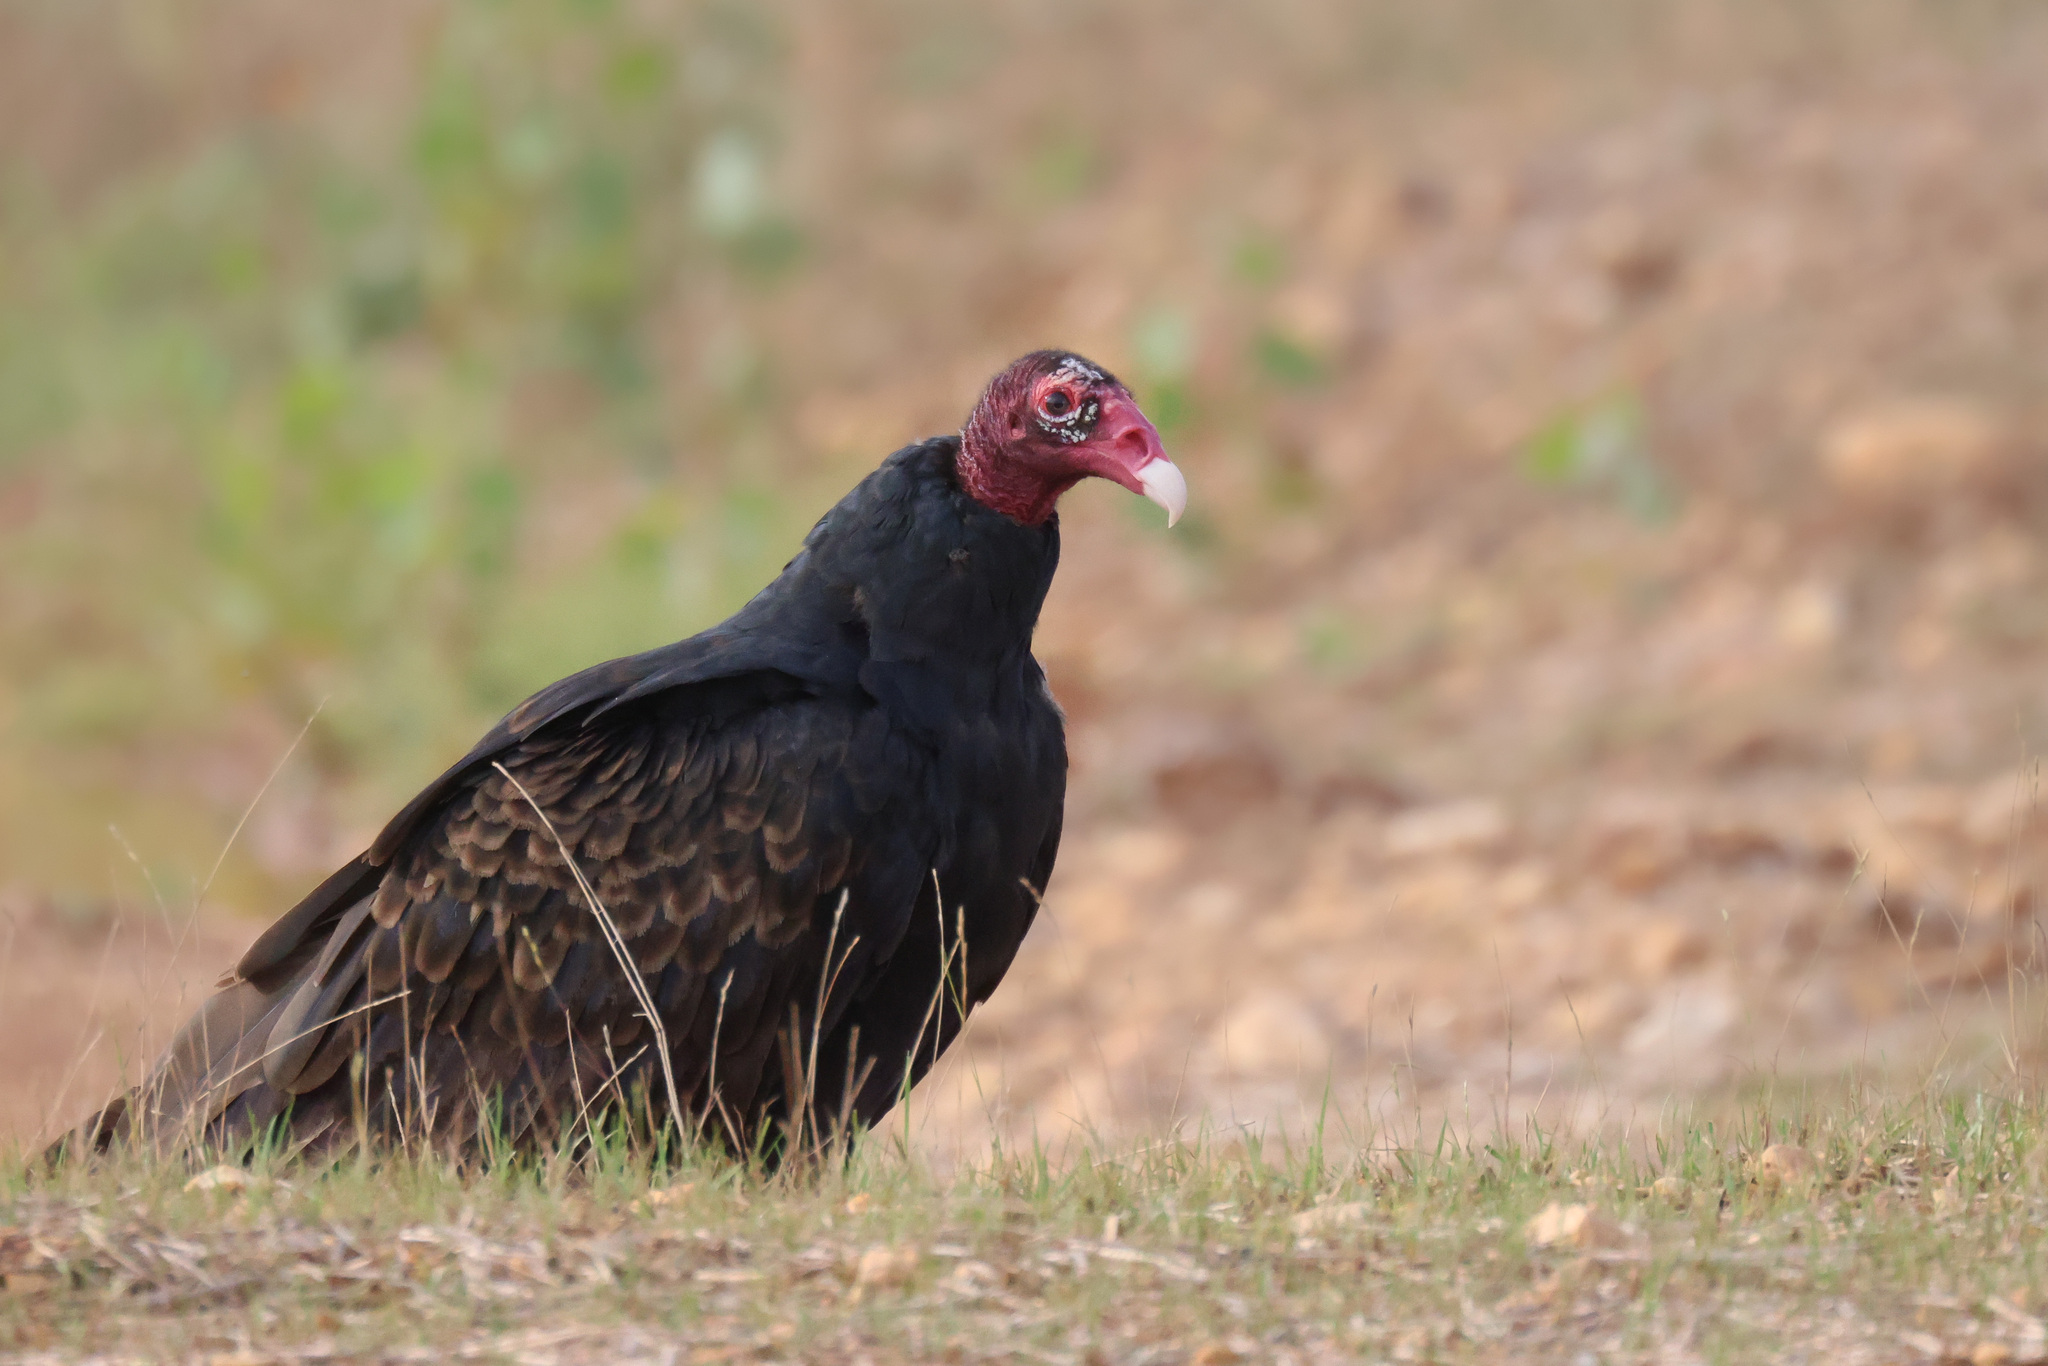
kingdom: Animalia
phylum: Chordata
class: Aves
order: Accipitriformes
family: Cathartidae
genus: Cathartes
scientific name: Cathartes aura
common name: Turkey vulture
